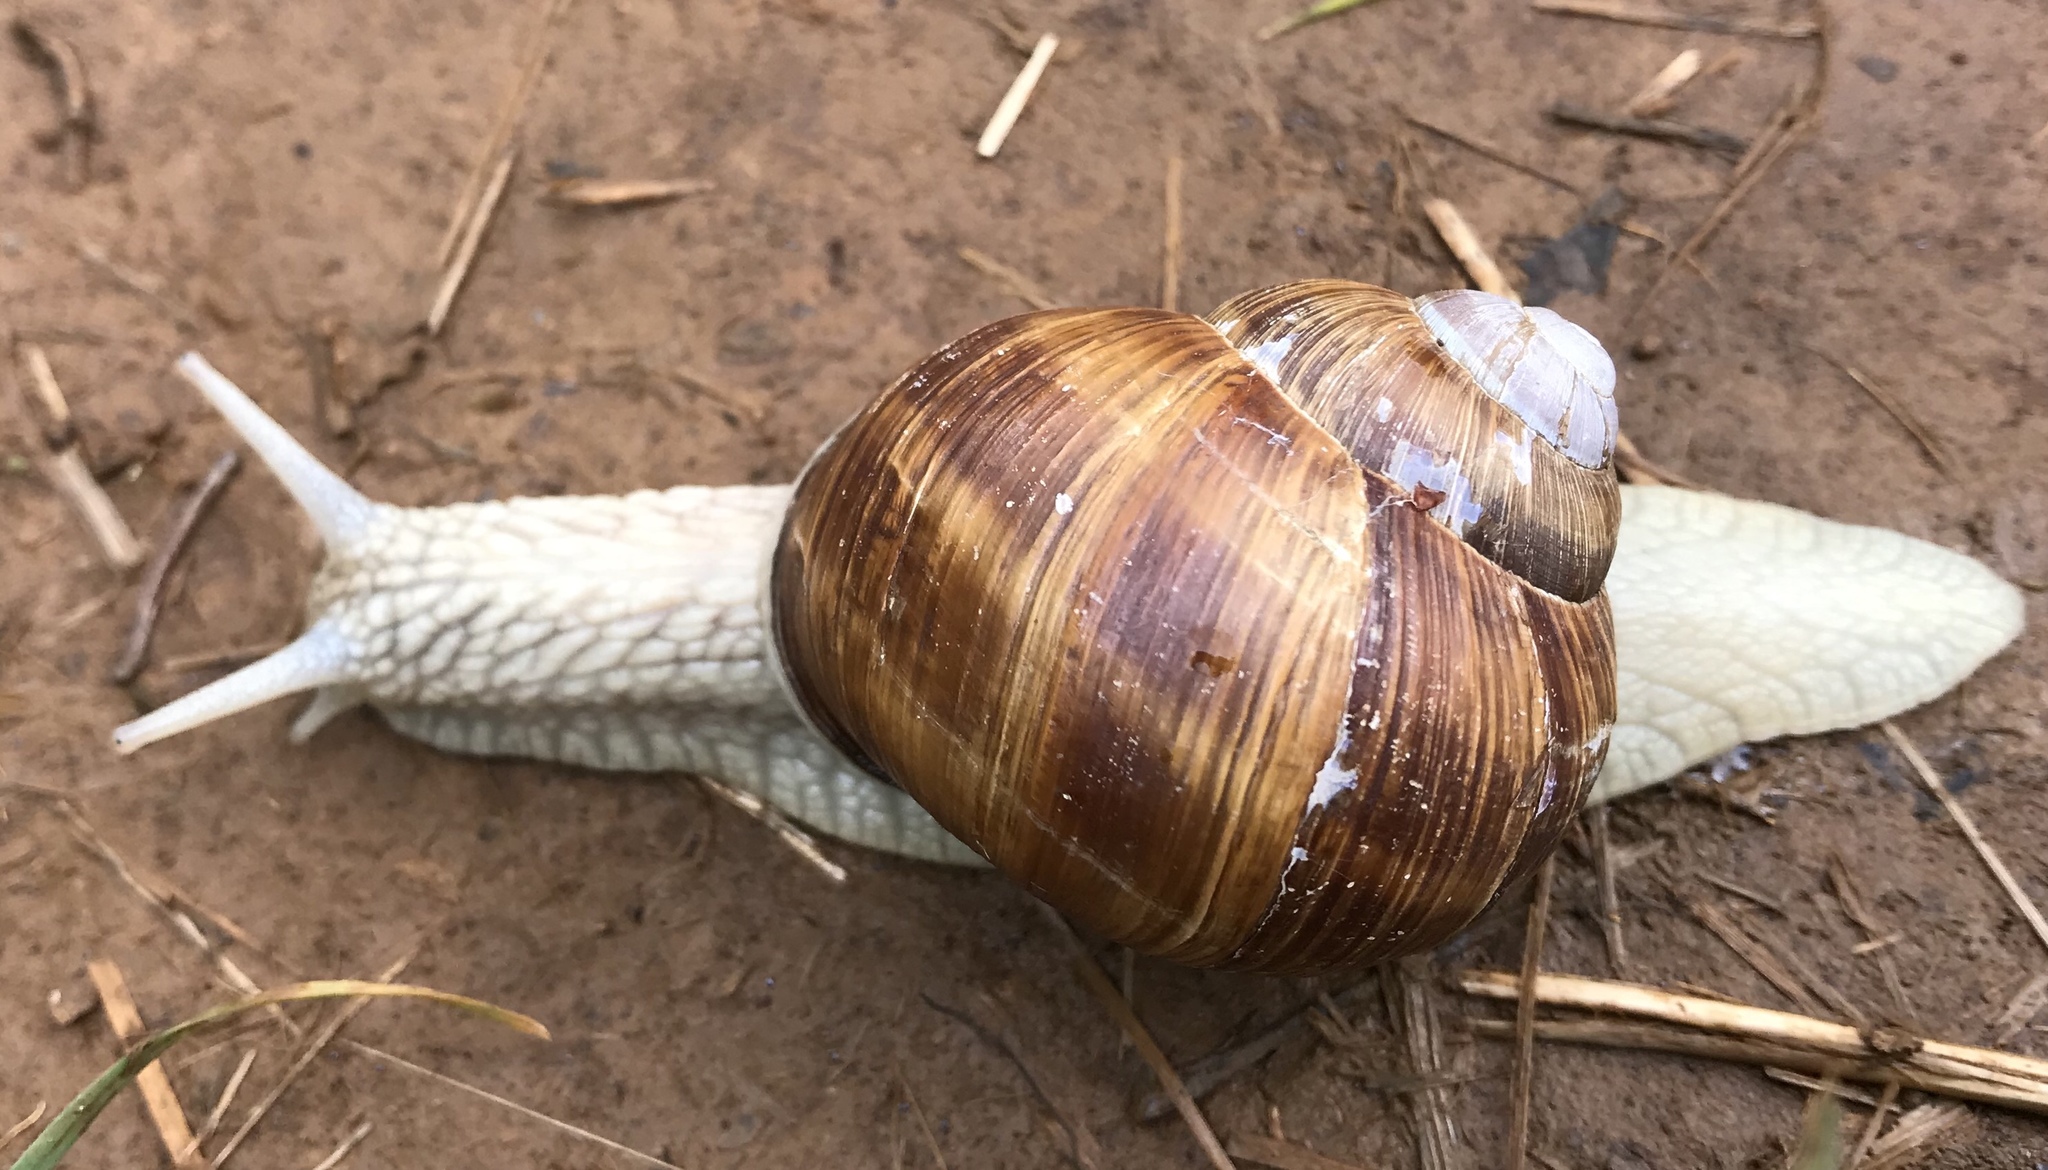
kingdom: Animalia
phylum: Mollusca
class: Gastropoda
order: Stylommatophora
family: Helicidae
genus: Helix
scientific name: Helix pomatia
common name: Roman snail
